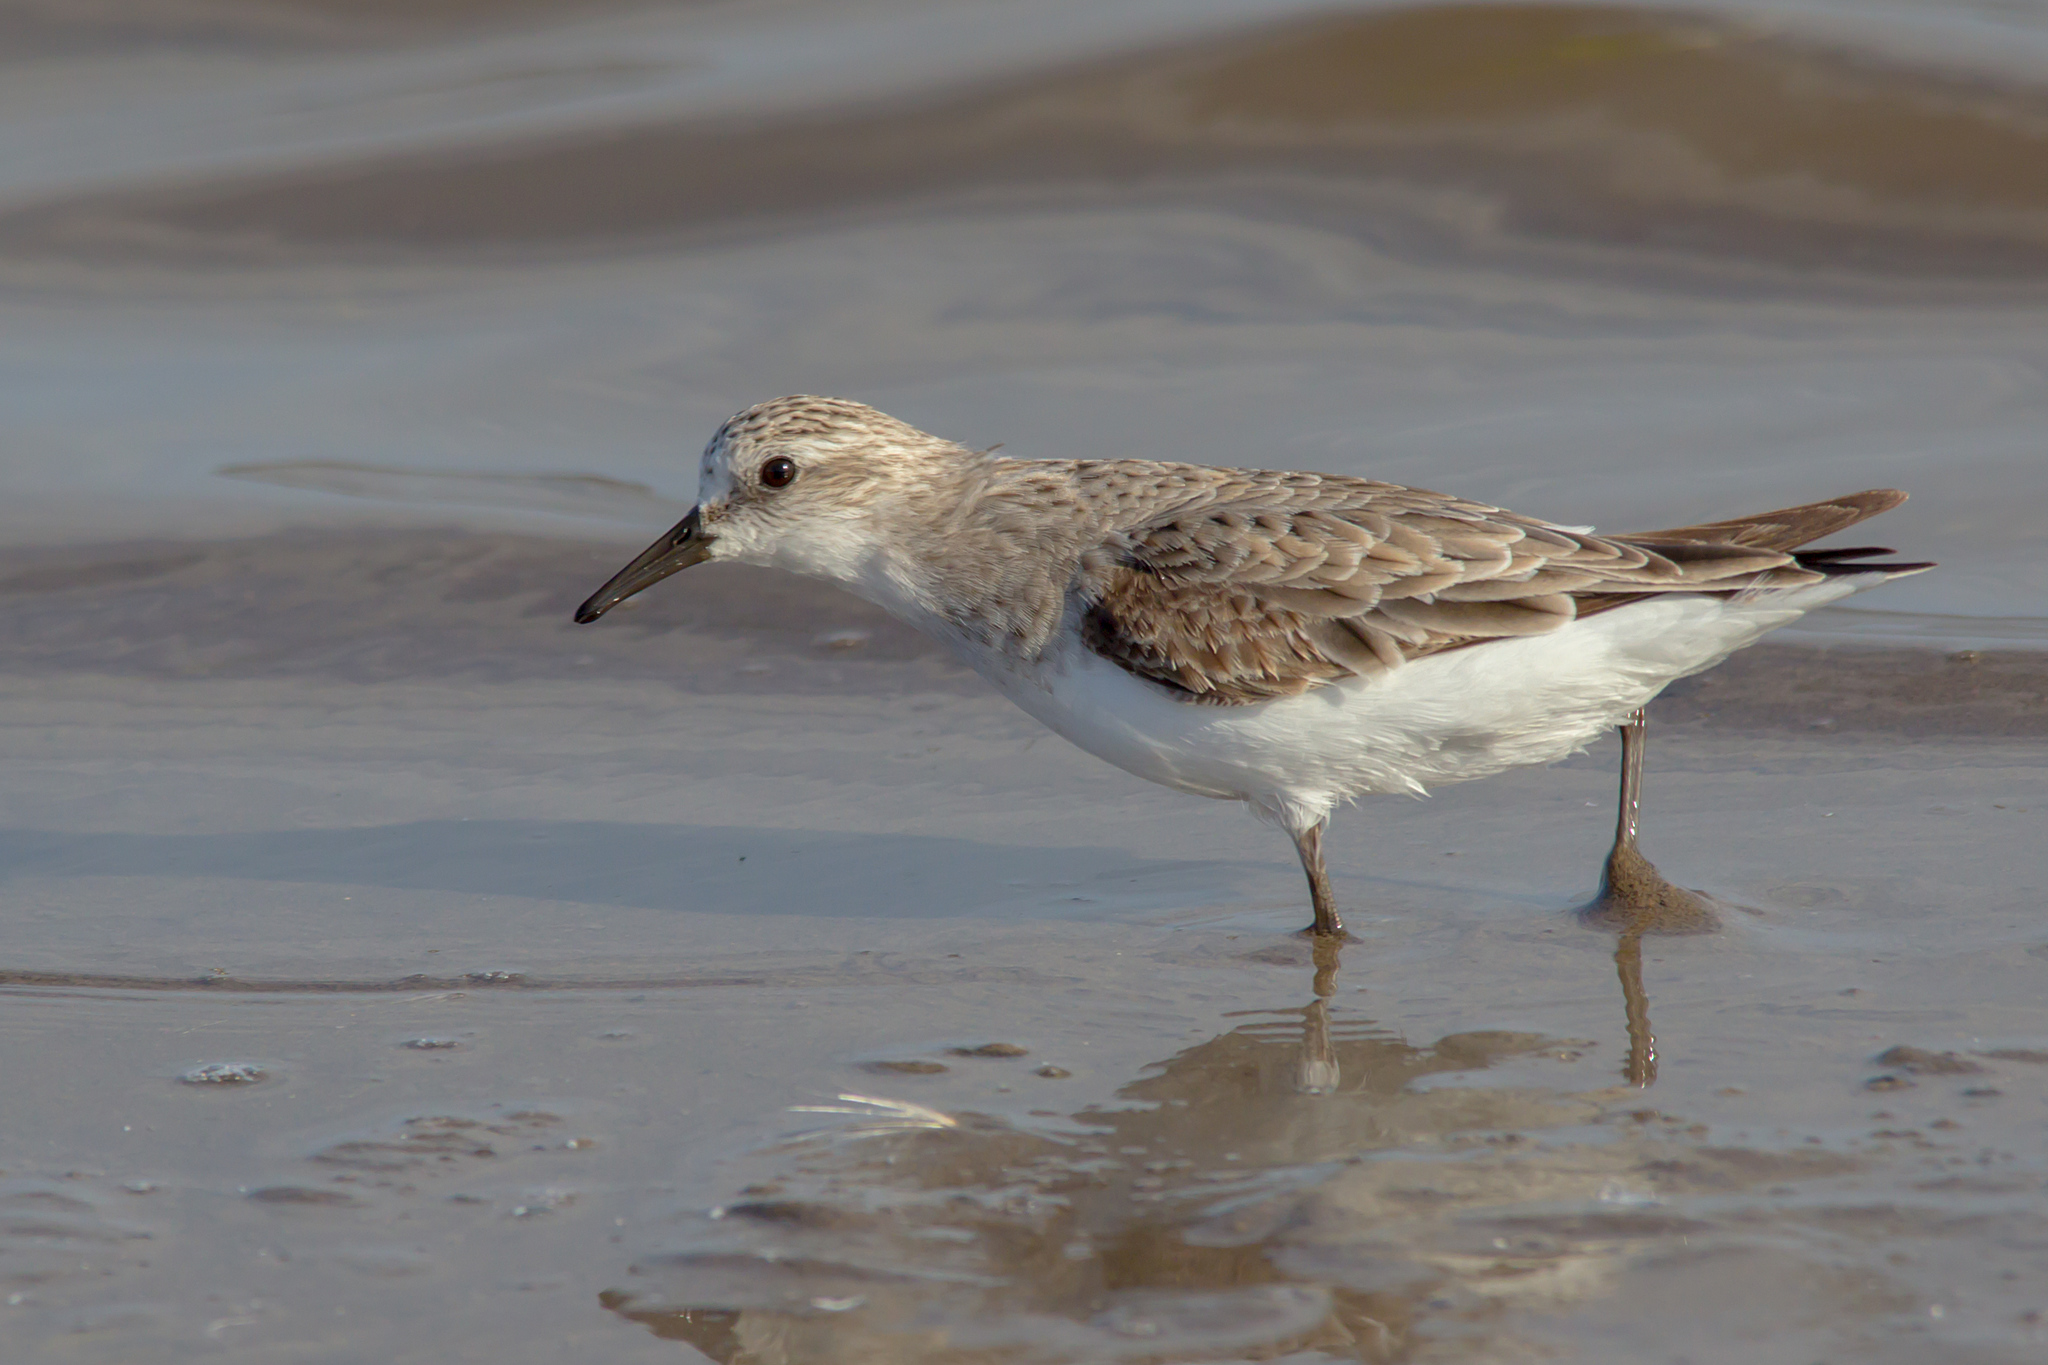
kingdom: Animalia
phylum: Chordata
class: Aves
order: Charadriiformes
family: Scolopacidae
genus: Calidris
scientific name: Calidris ruficollis
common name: Red-necked stint
